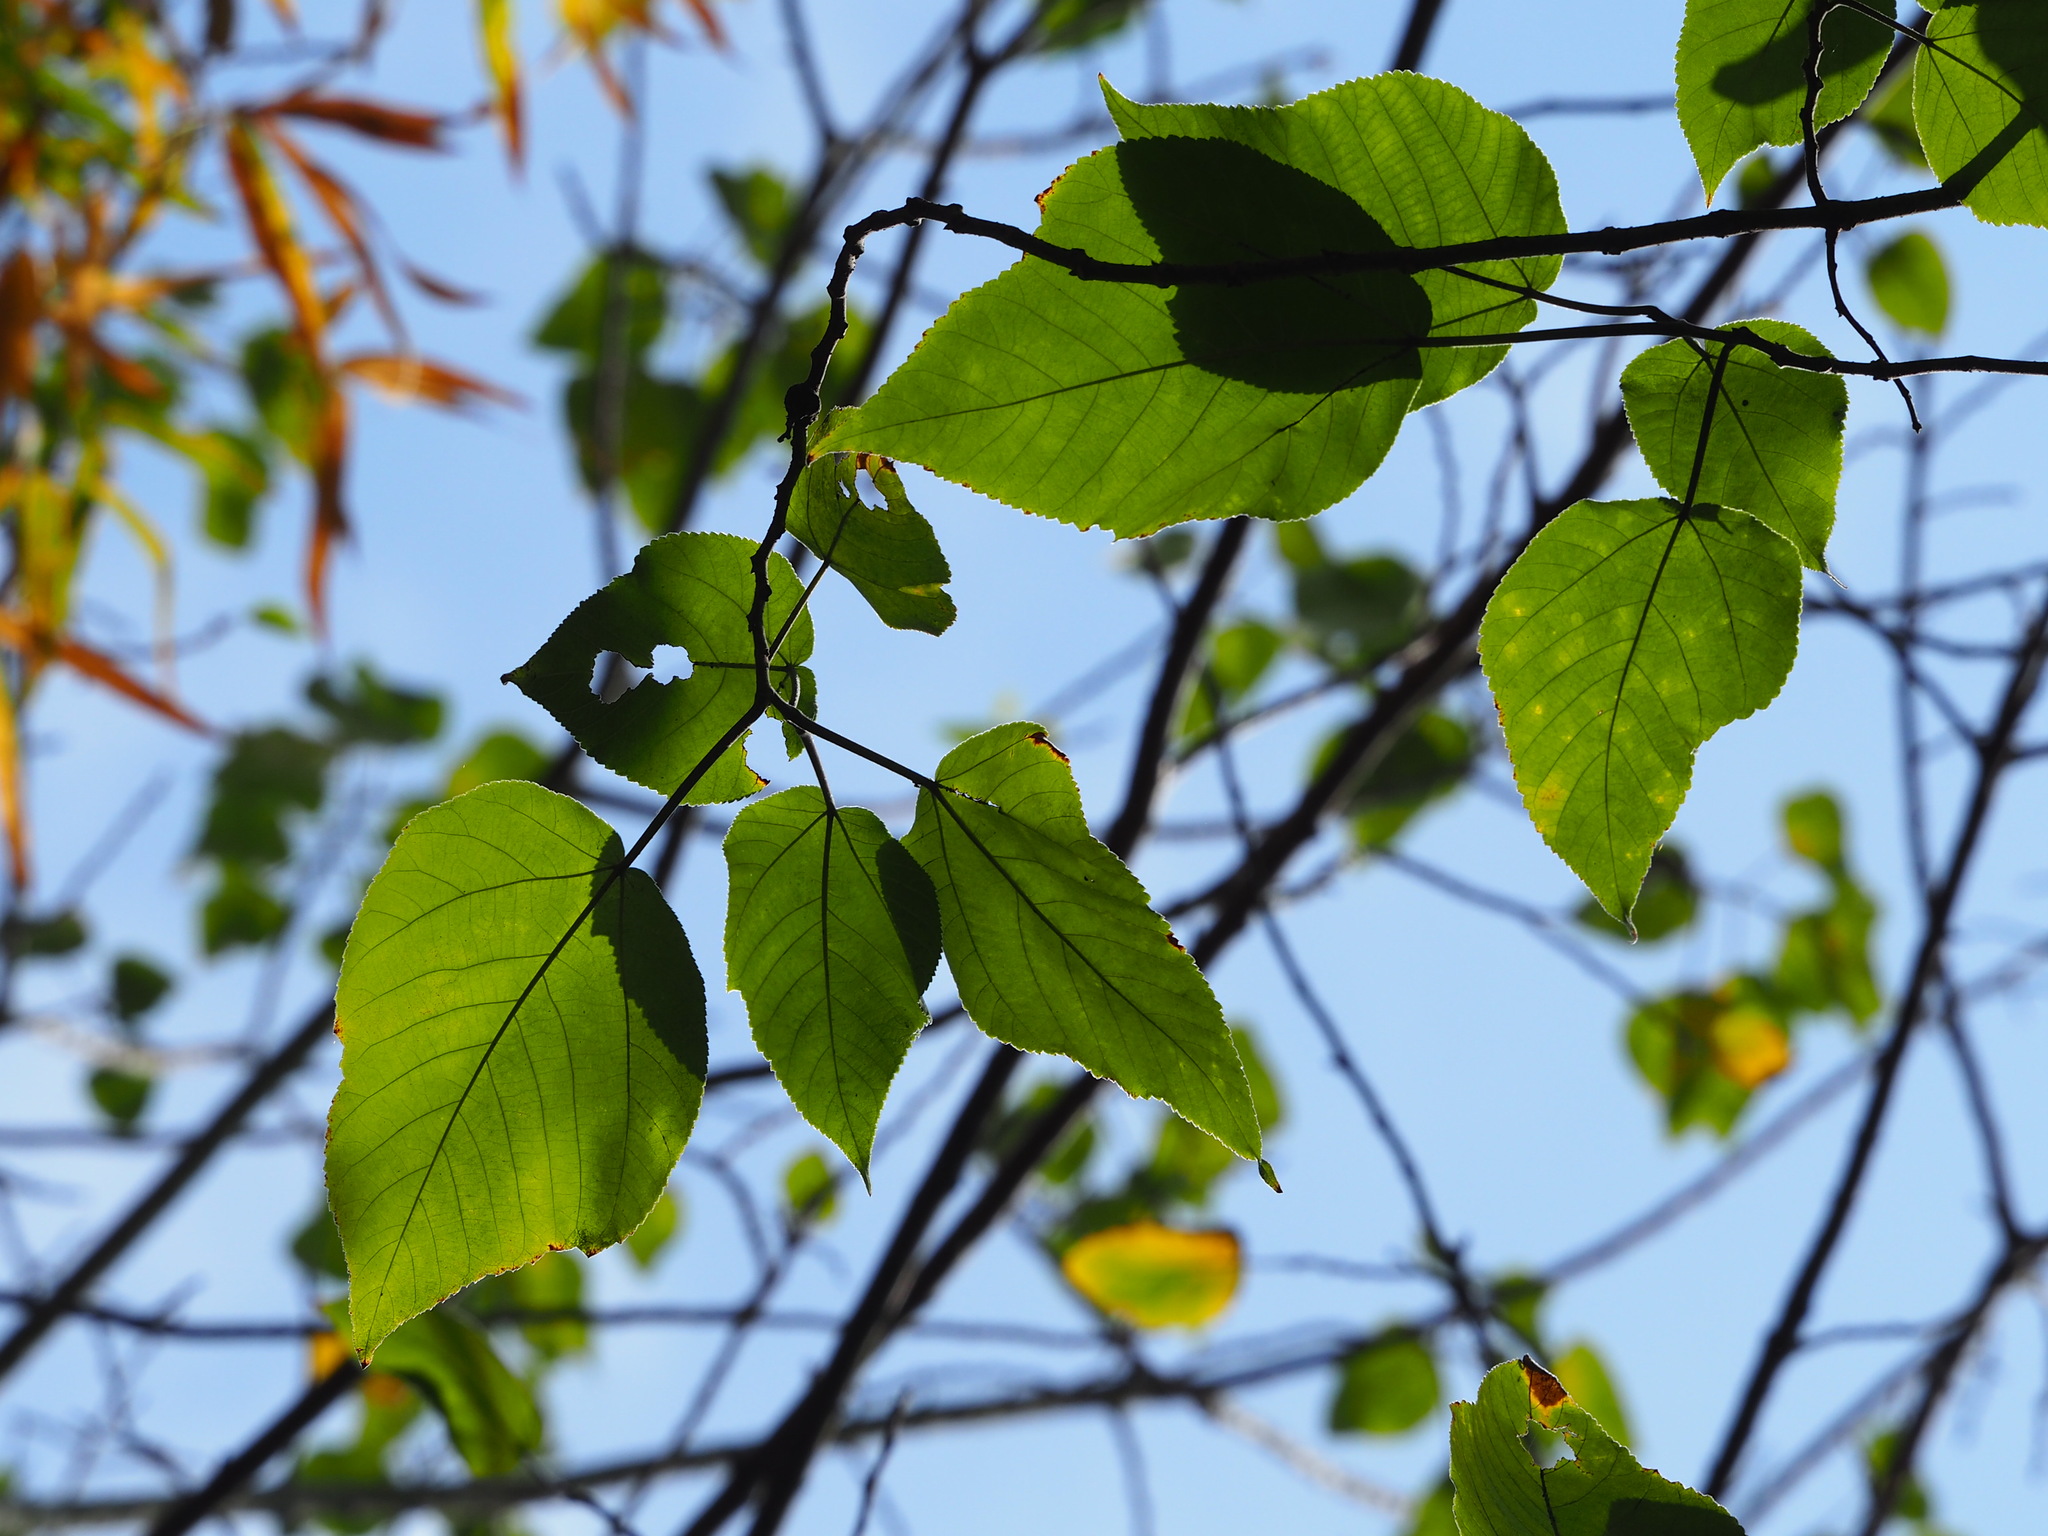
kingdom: Plantae
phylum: Tracheophyta
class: Magnoliopsida
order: Rosales
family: Moraceae
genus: Broussonetia
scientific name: Broussonetia papyrifera
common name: Paper mulberry
